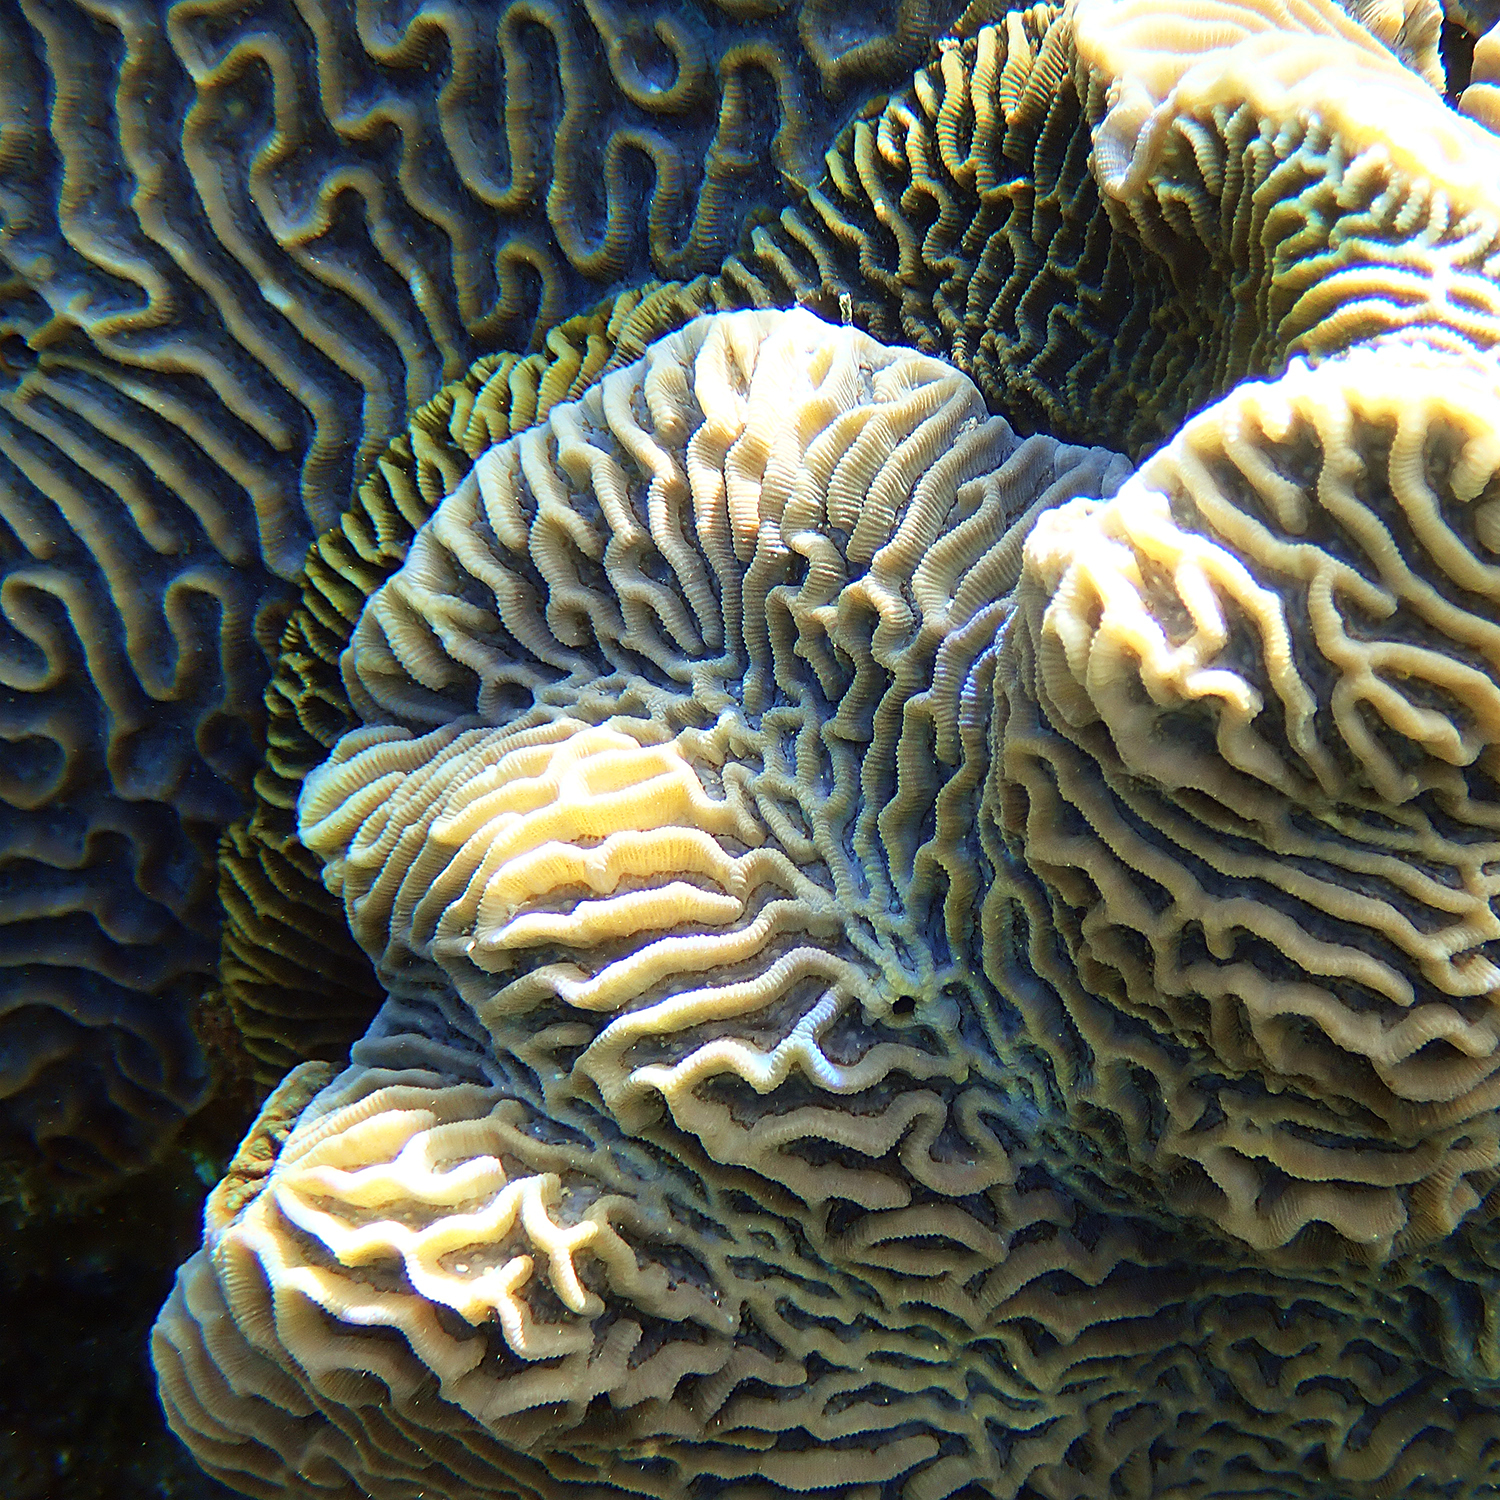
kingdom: Animalia
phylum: Cnidaria
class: Anthozoa
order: Scleractinia
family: Merulinidae
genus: Paragoniastrea
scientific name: Paragoniastrea australensis
